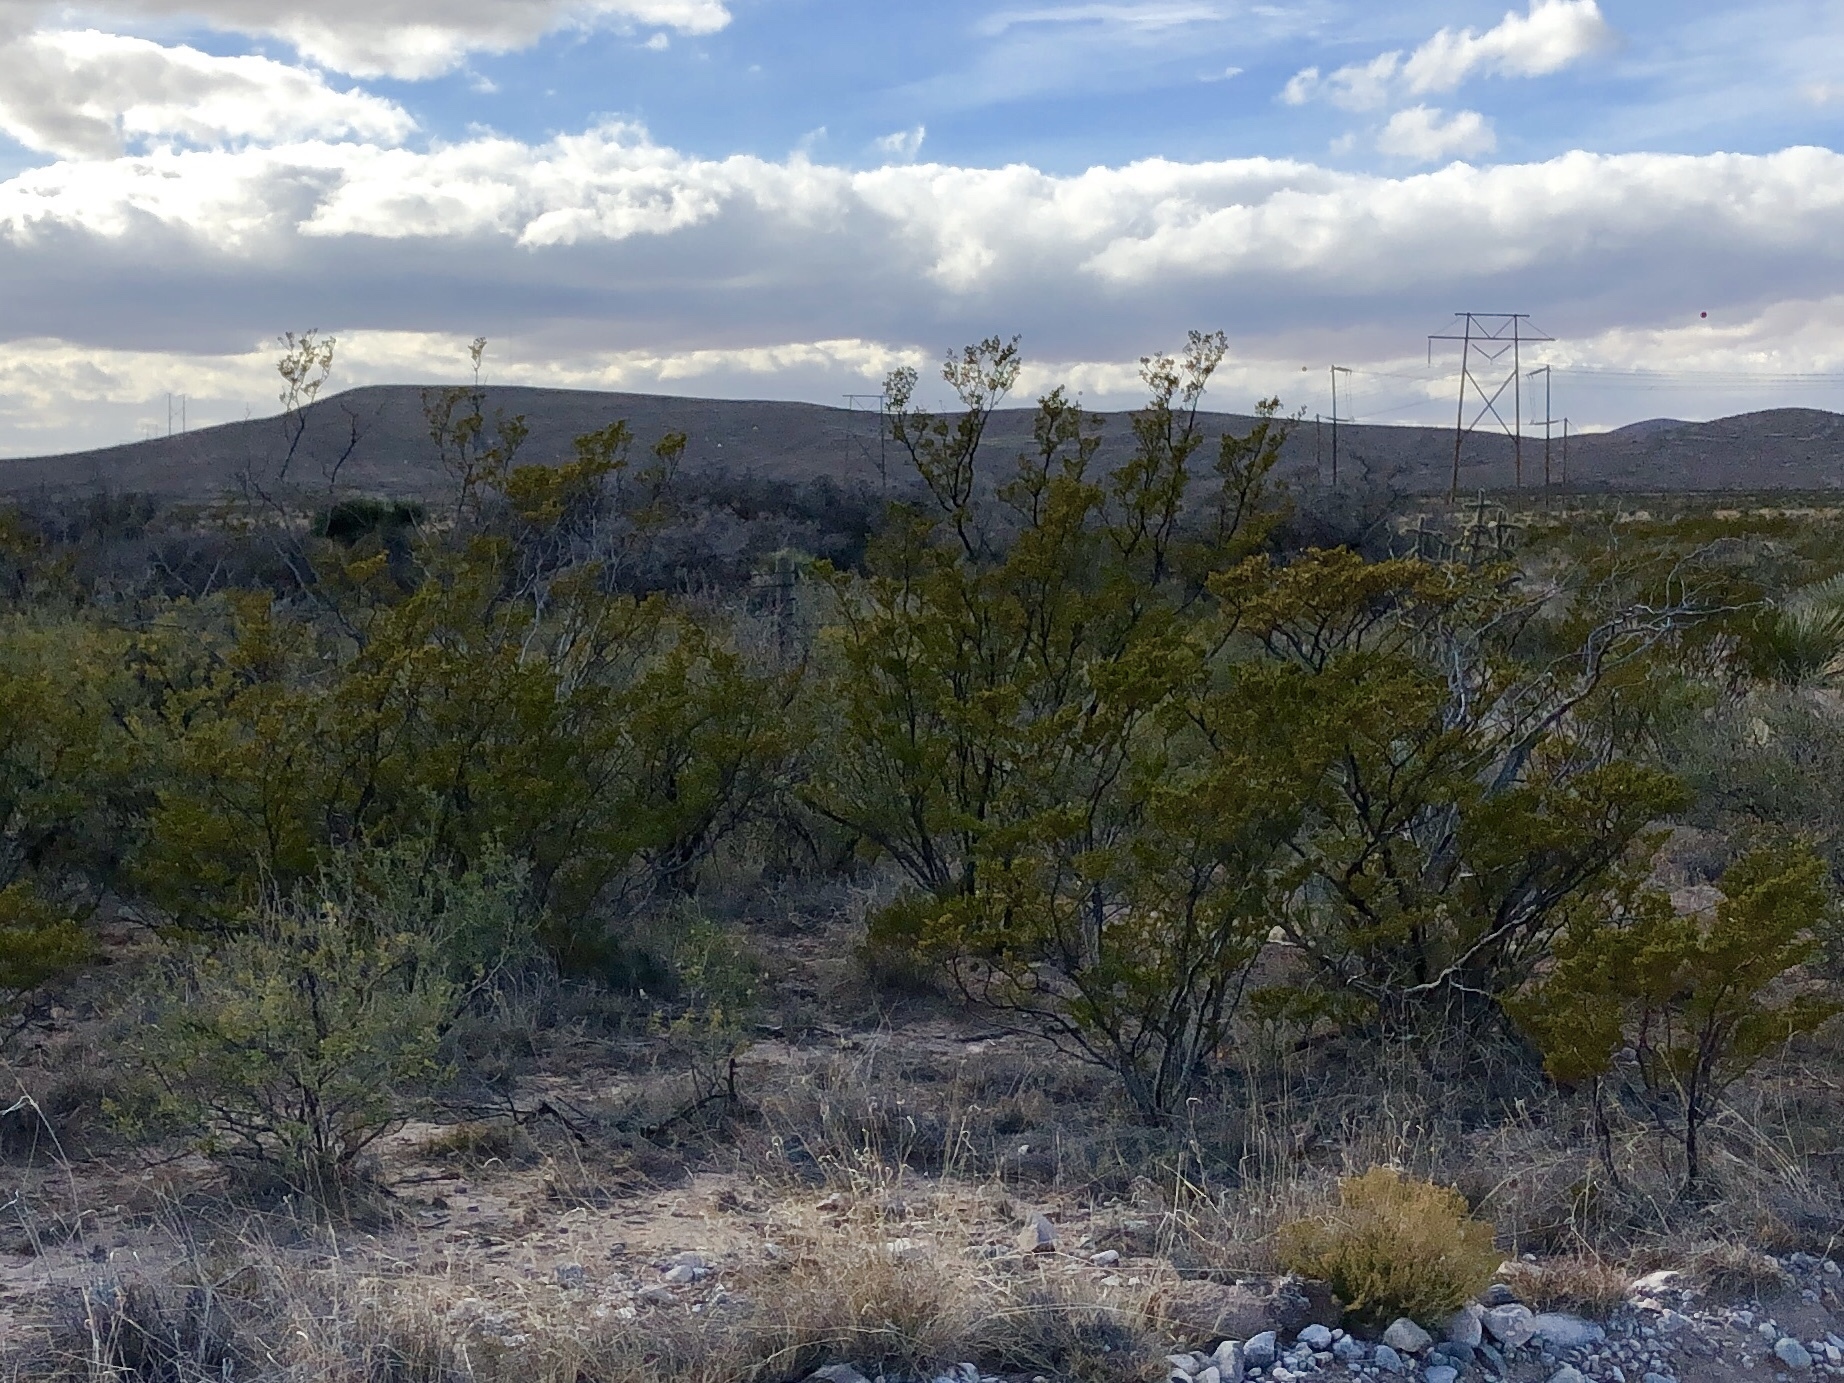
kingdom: Plantae
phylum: Tracheophyta
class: Magnoliopsida
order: Zygophyllales
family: Zygophyllaceae
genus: Larrea
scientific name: Larrea tridentata
